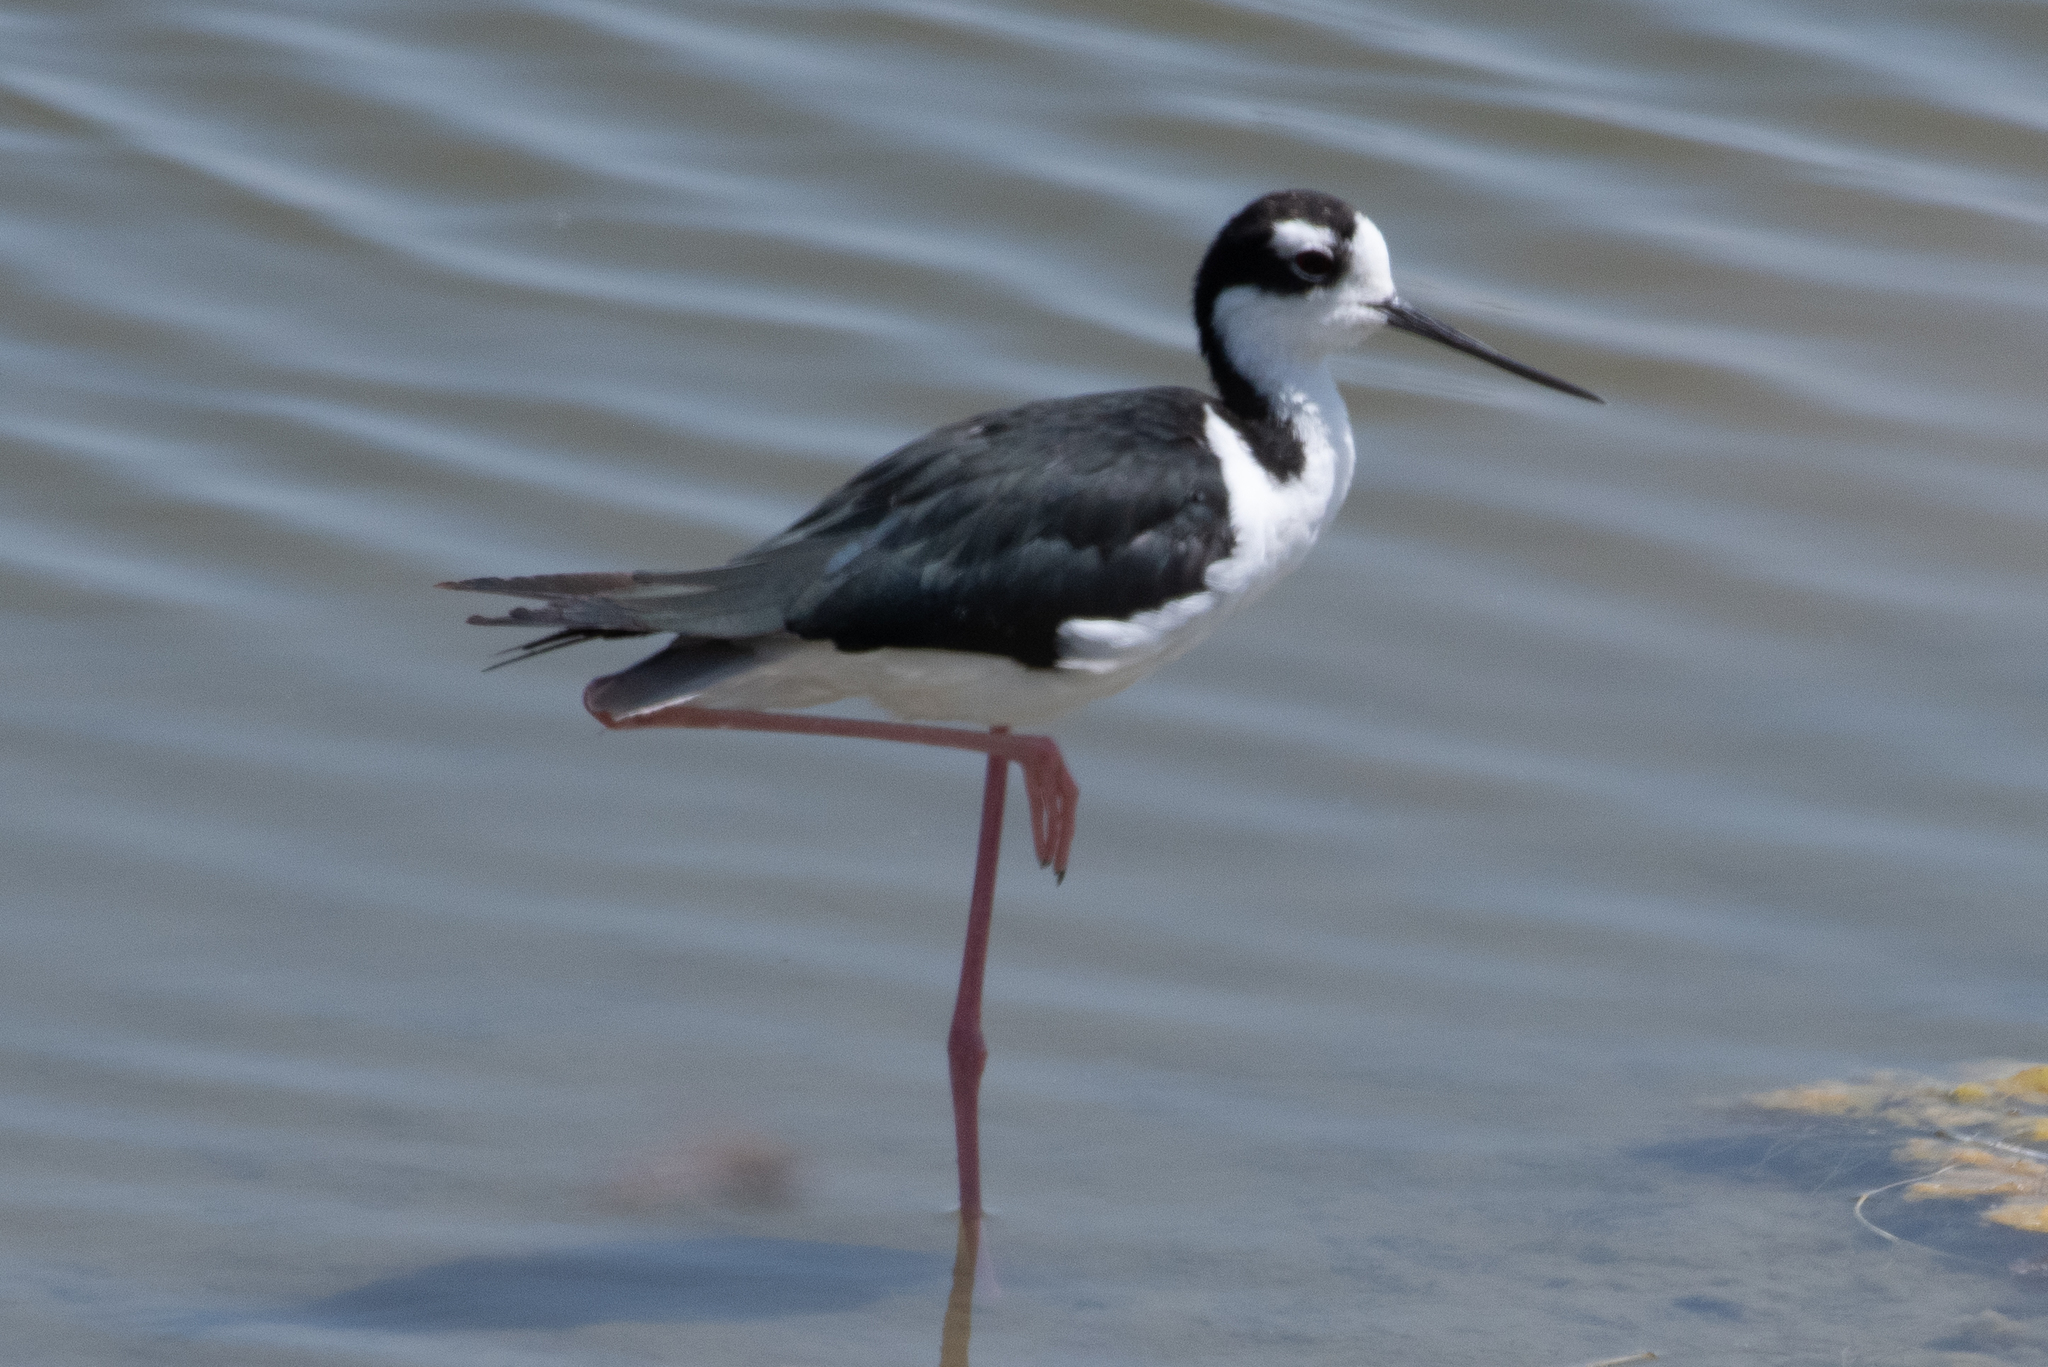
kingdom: Animalia
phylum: Chordata
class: Aves
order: Charadriiformes
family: Recurvirostridae
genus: Himantopus
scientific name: Himantopus mexicanus
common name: Black-necked stilt
